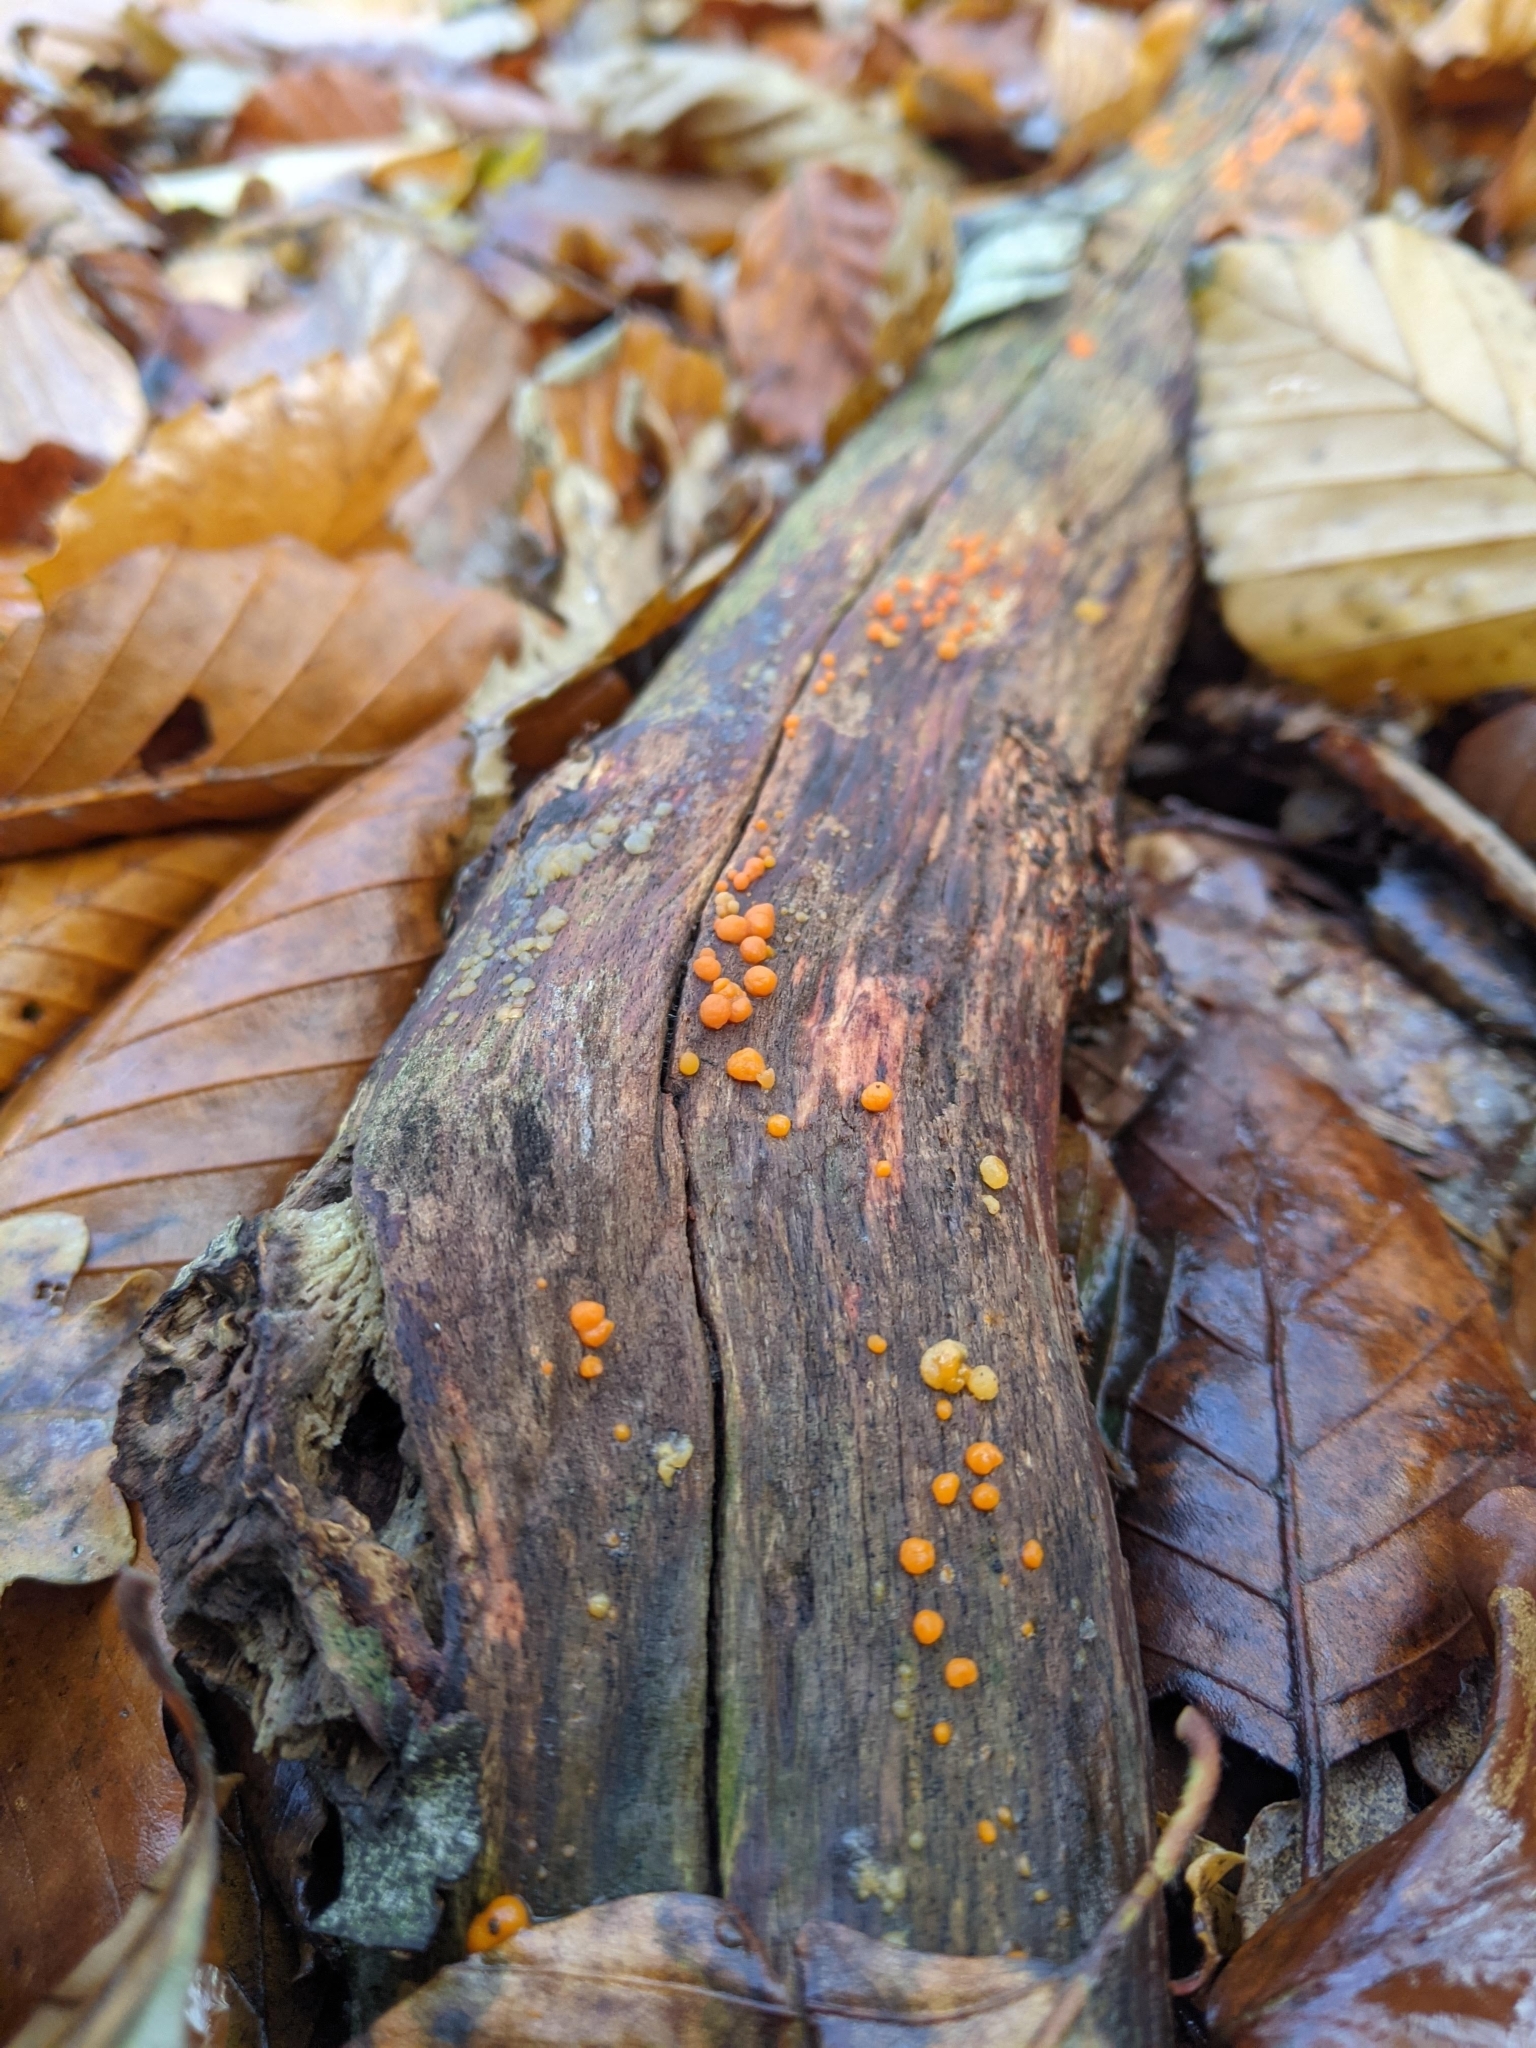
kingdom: Fungi
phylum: Basidiomycota
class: Dacrymycetes
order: Dacrymycetales
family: Dacrymycetaceae
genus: Dacrymyces
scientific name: Dacrymyces stillatus
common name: Common jelly spot
